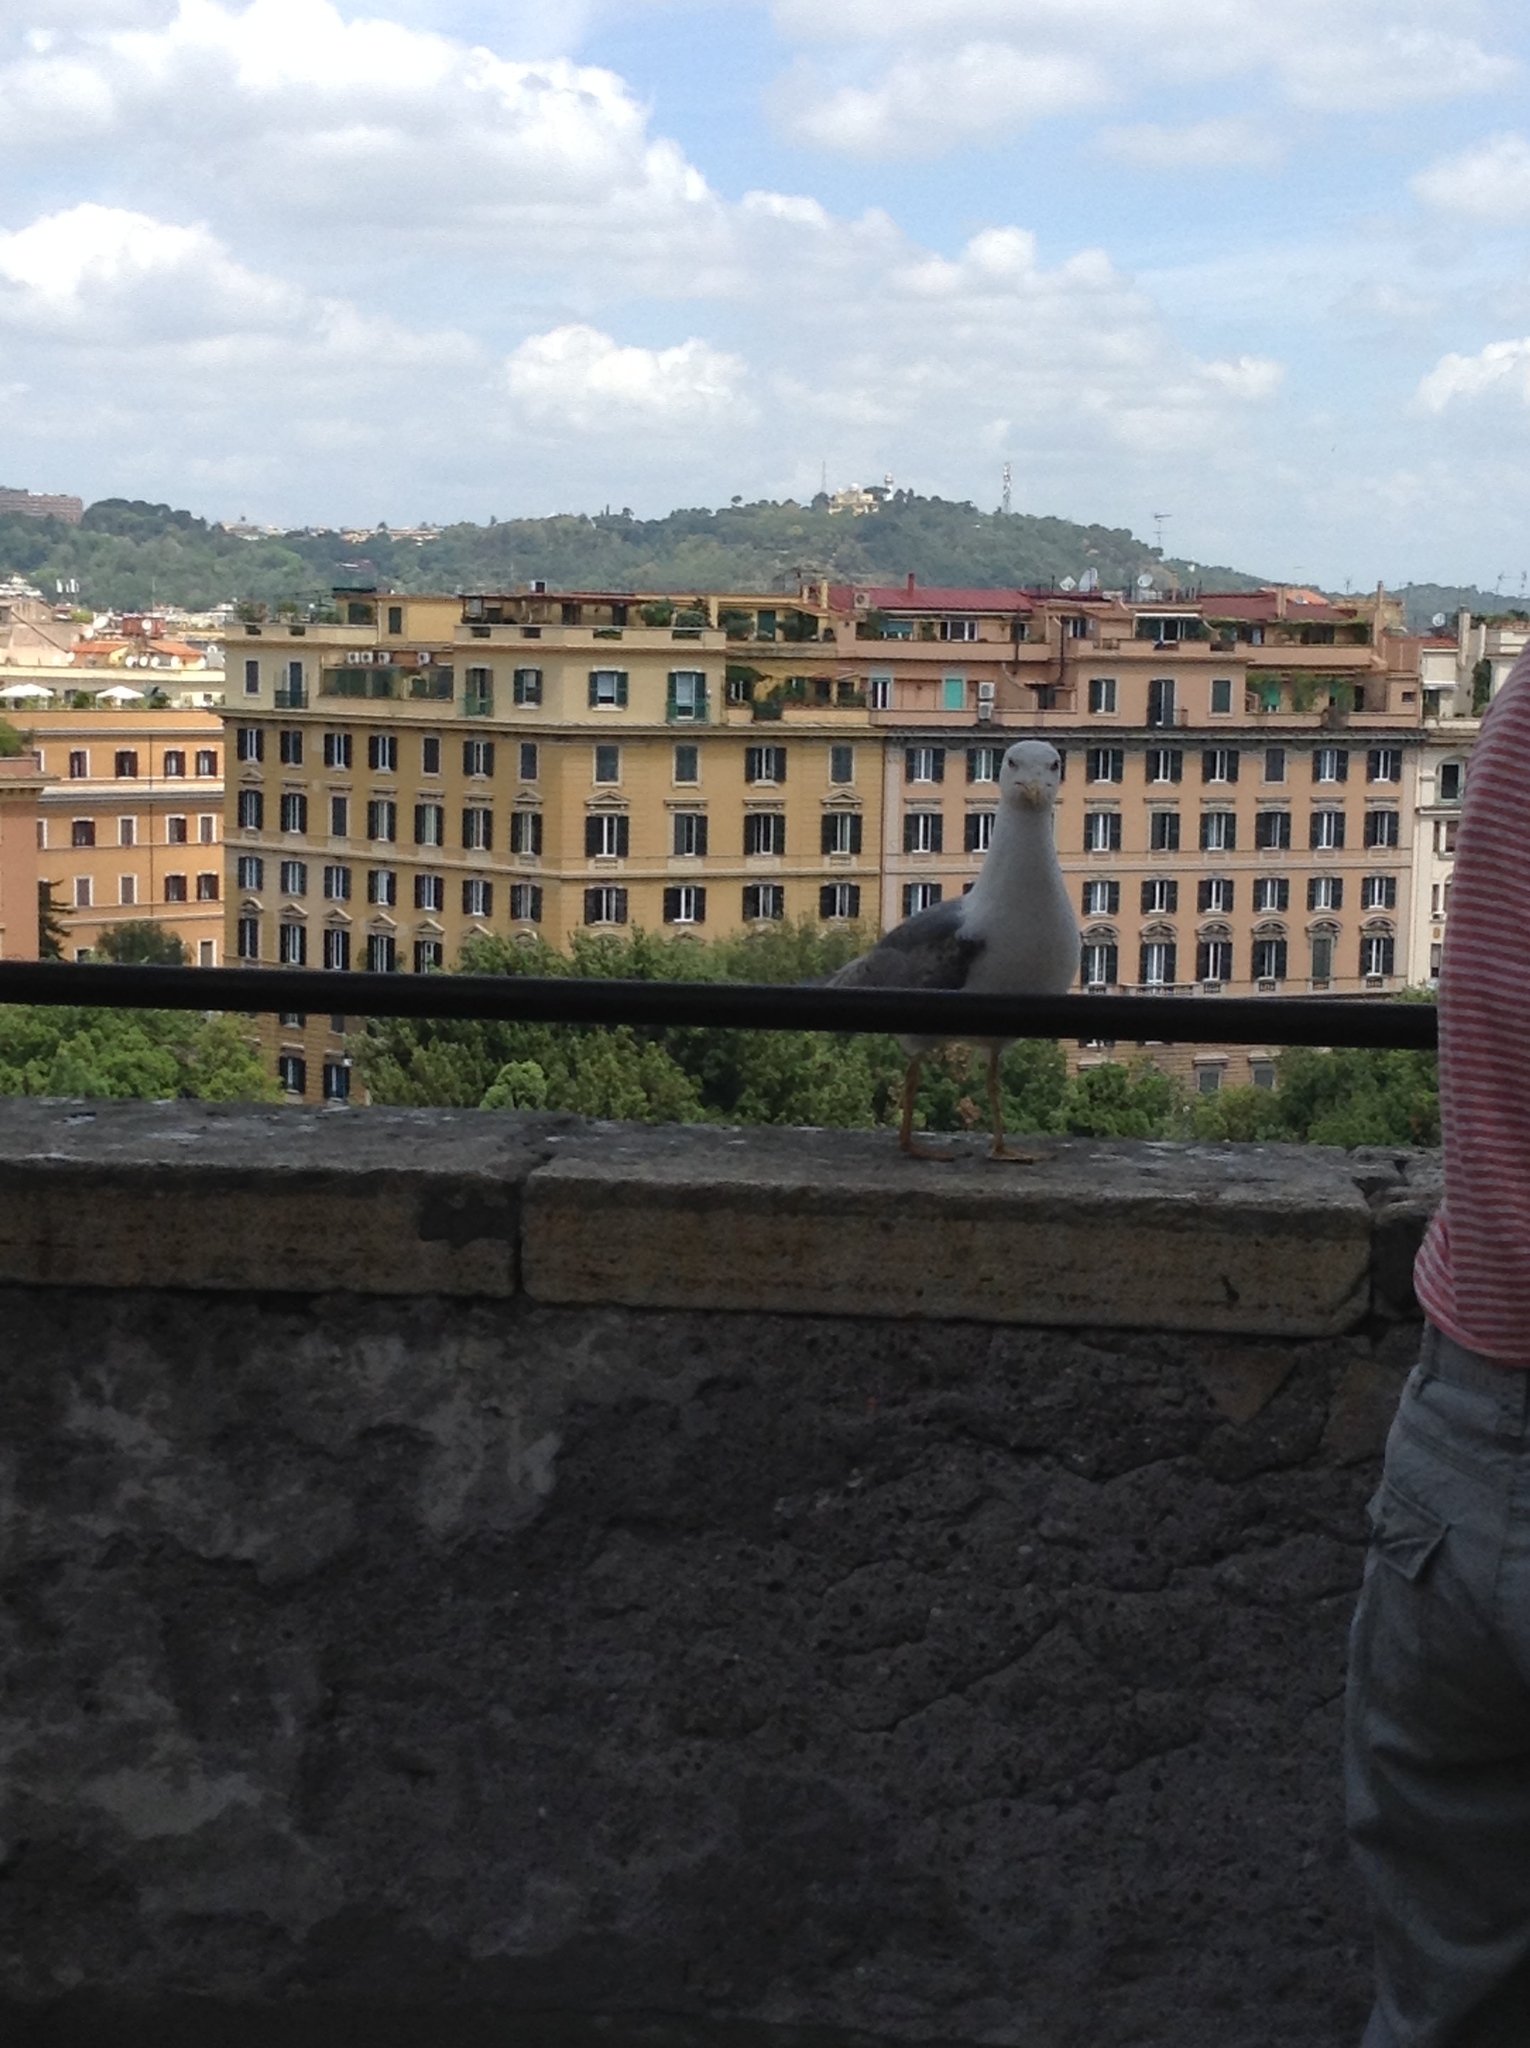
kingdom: Animalia
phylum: Chordata
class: Aves
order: Charadriiformes
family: Laridae
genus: Larus
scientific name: Larus michahellis
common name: Yellow-legged gull
